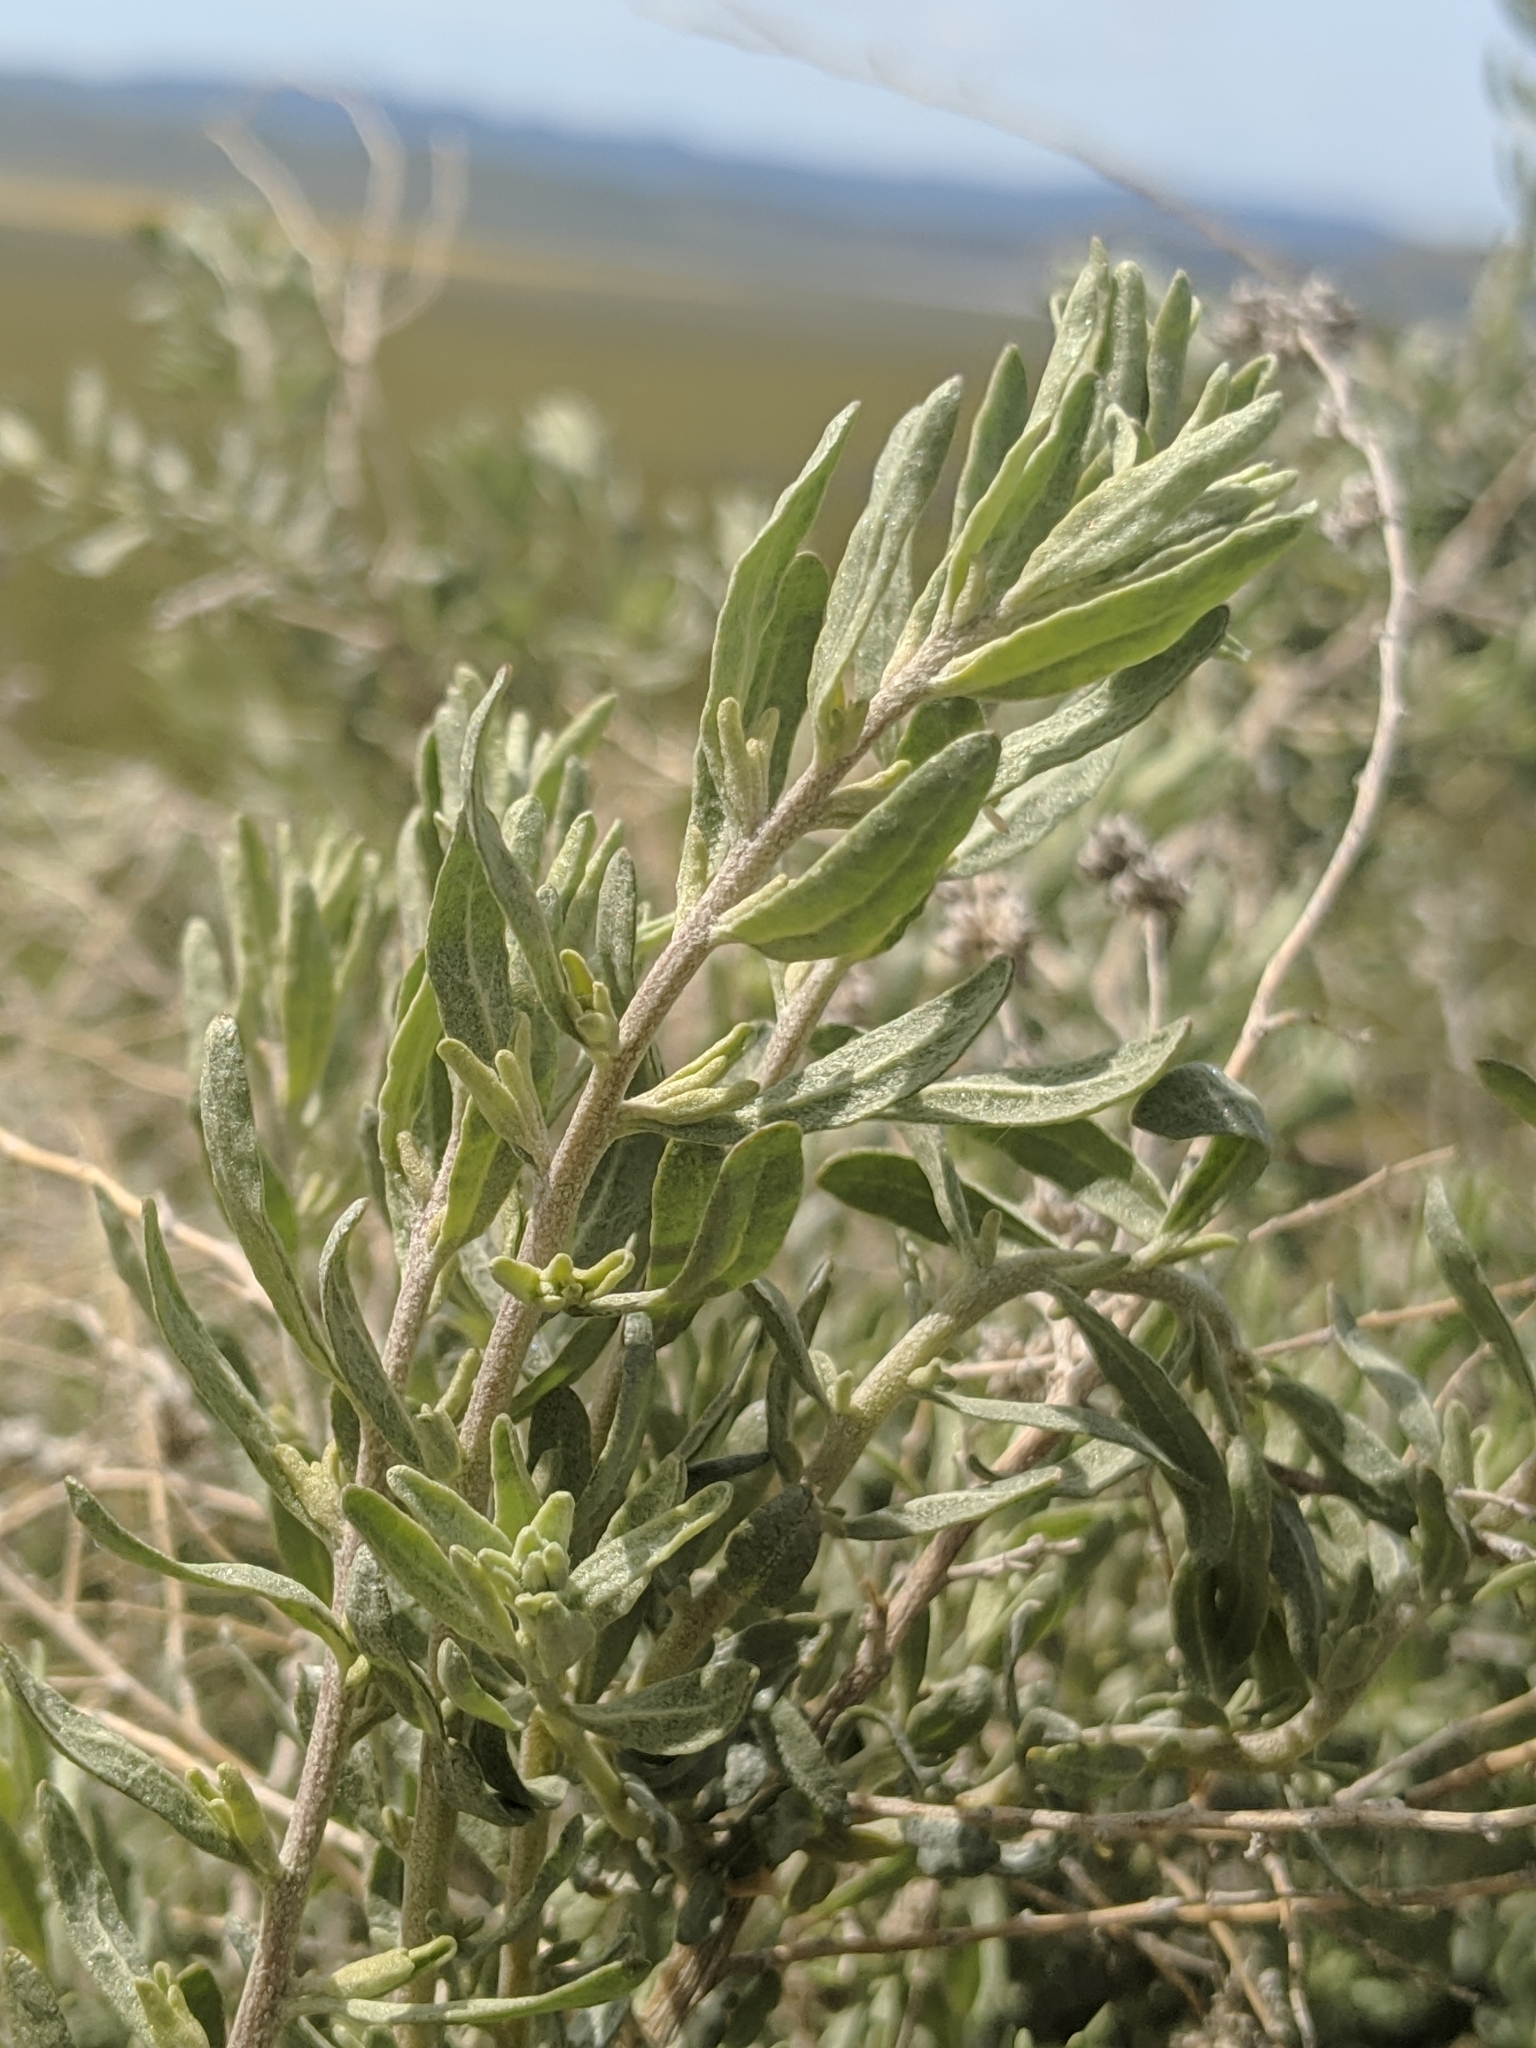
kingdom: Plantae
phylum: Tracheophyta
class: Magnoliopsida
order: Caryophyllales
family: Amaranthaceae
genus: Atriplex
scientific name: Atriplex canescens
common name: Four-wing saltbush
